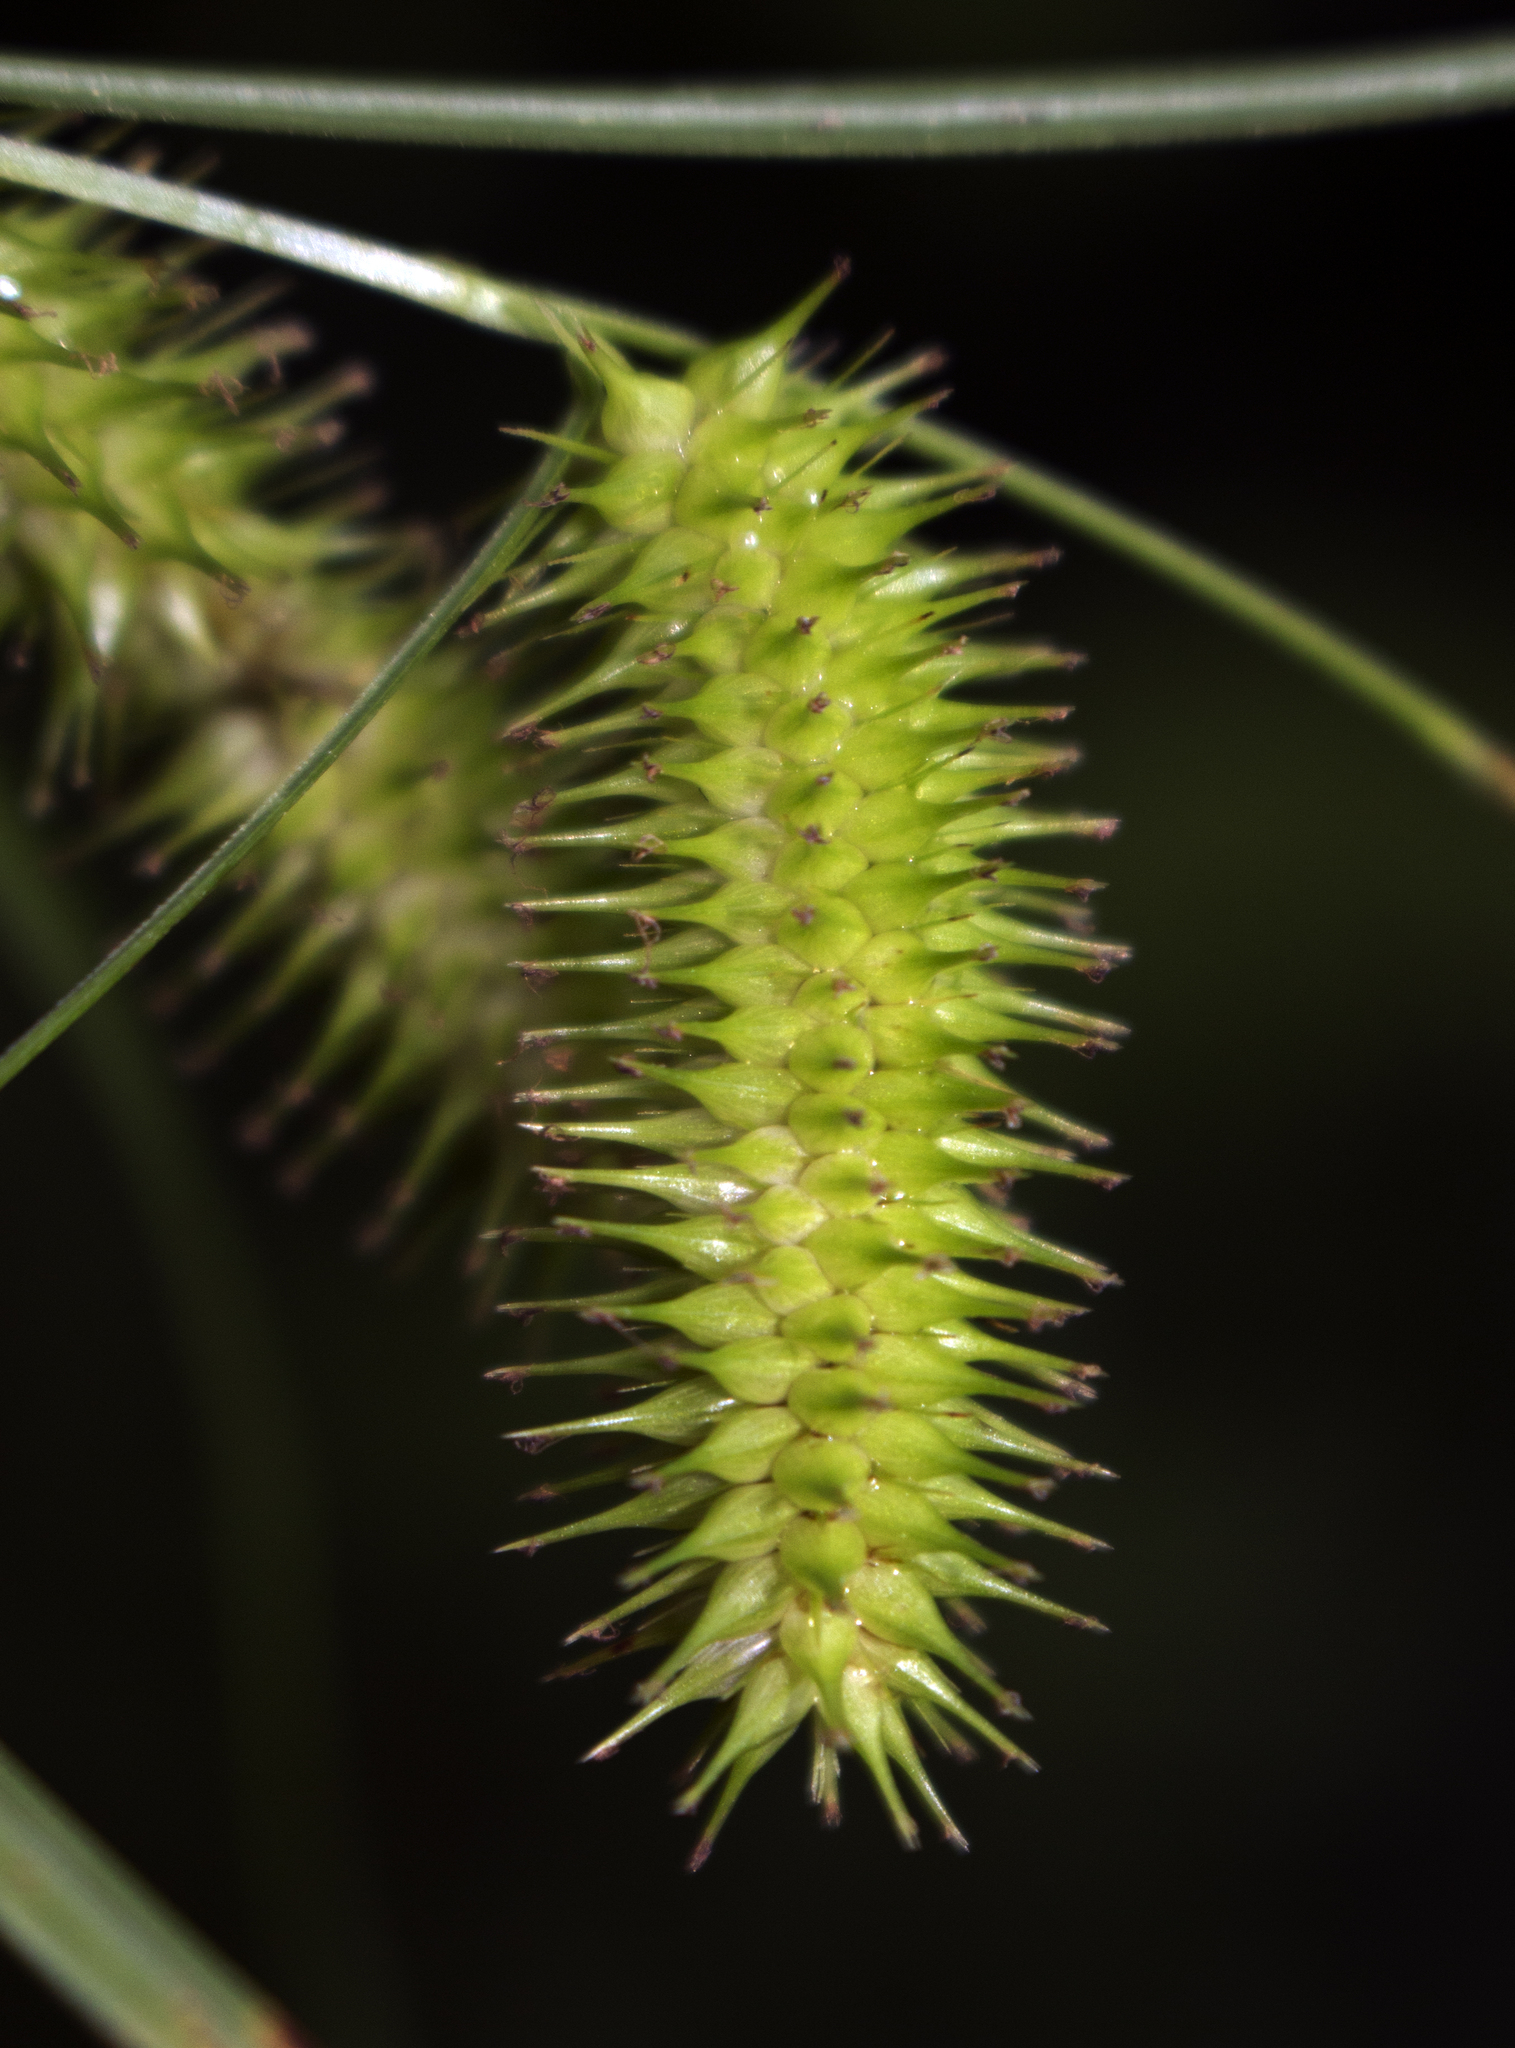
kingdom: Plantae
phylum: Tracheophyta
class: Liliopsida
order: Poales
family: Cyperaceae
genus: Carex
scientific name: Carex hystericina
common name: Bottlebrush sedge
